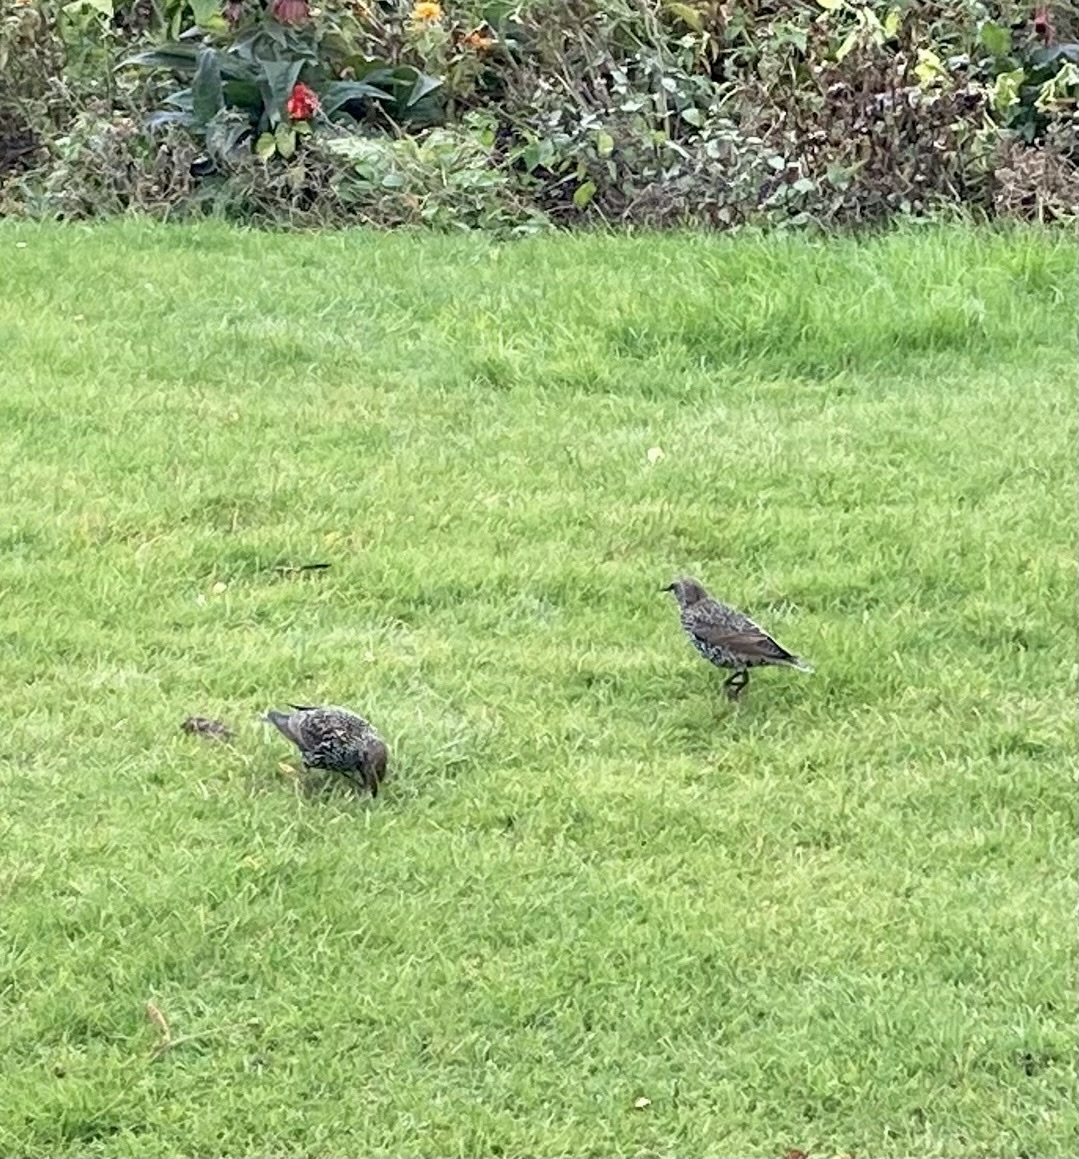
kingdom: Animalia
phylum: Chordata
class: Aves
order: Passeriformes
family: Sturnidae
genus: Sturnus
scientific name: Sturnus vulgaris
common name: Common starling
